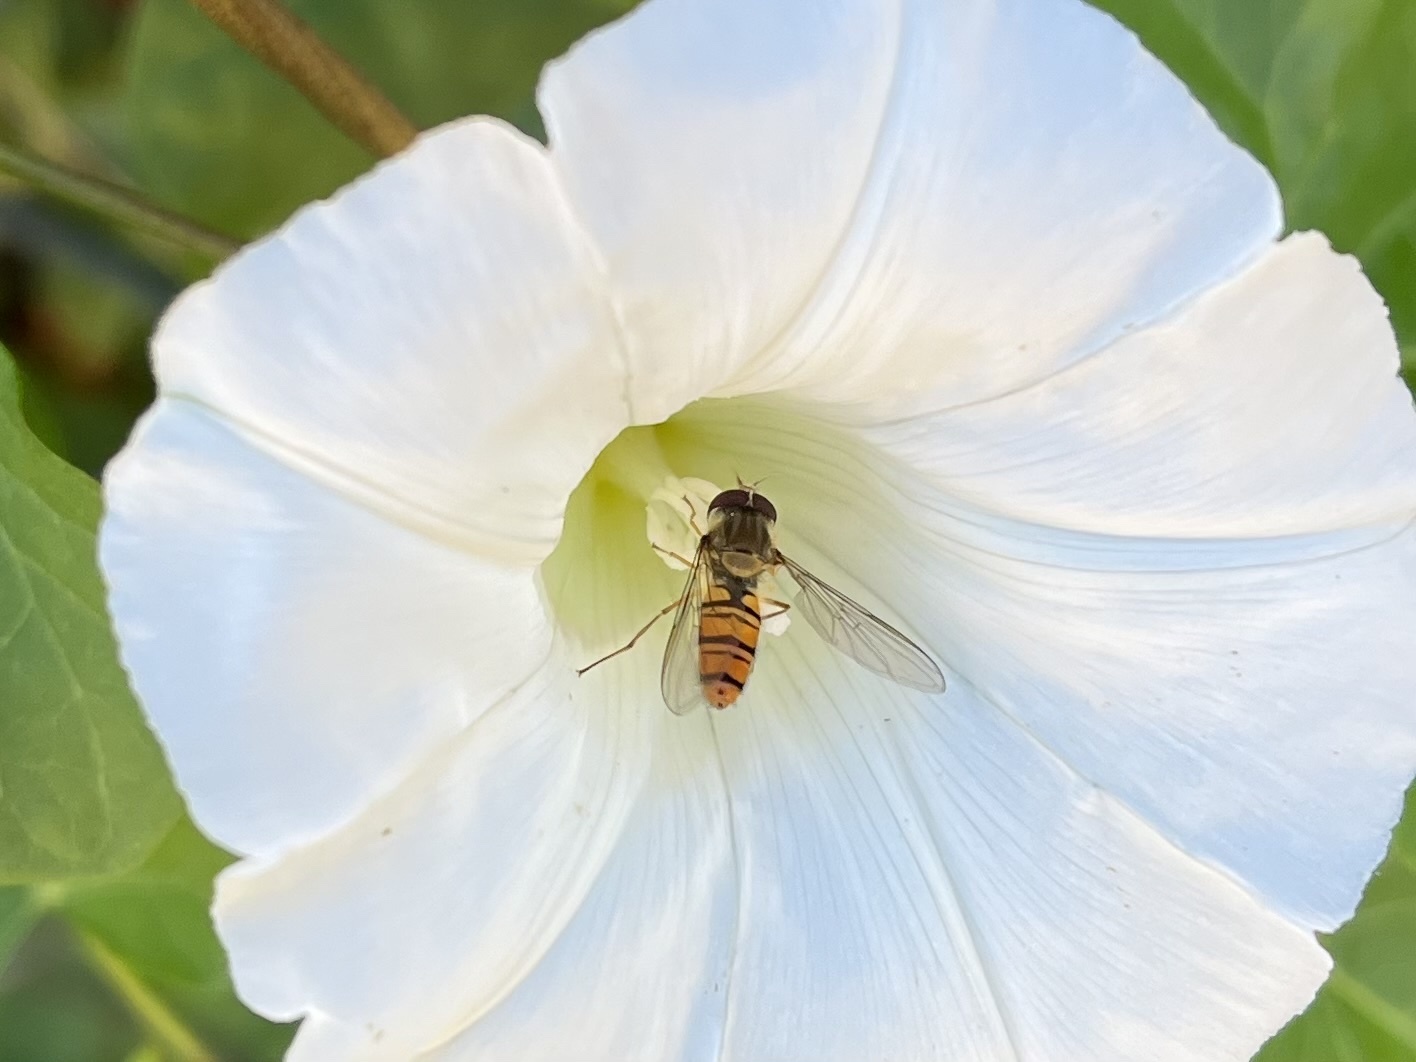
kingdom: Animalia
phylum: Arthropoda
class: Insecta
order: Diptera
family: Syrphidae
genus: Episyrphus
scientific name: Episyrphus balteatus
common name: Marmalade hoverfly
